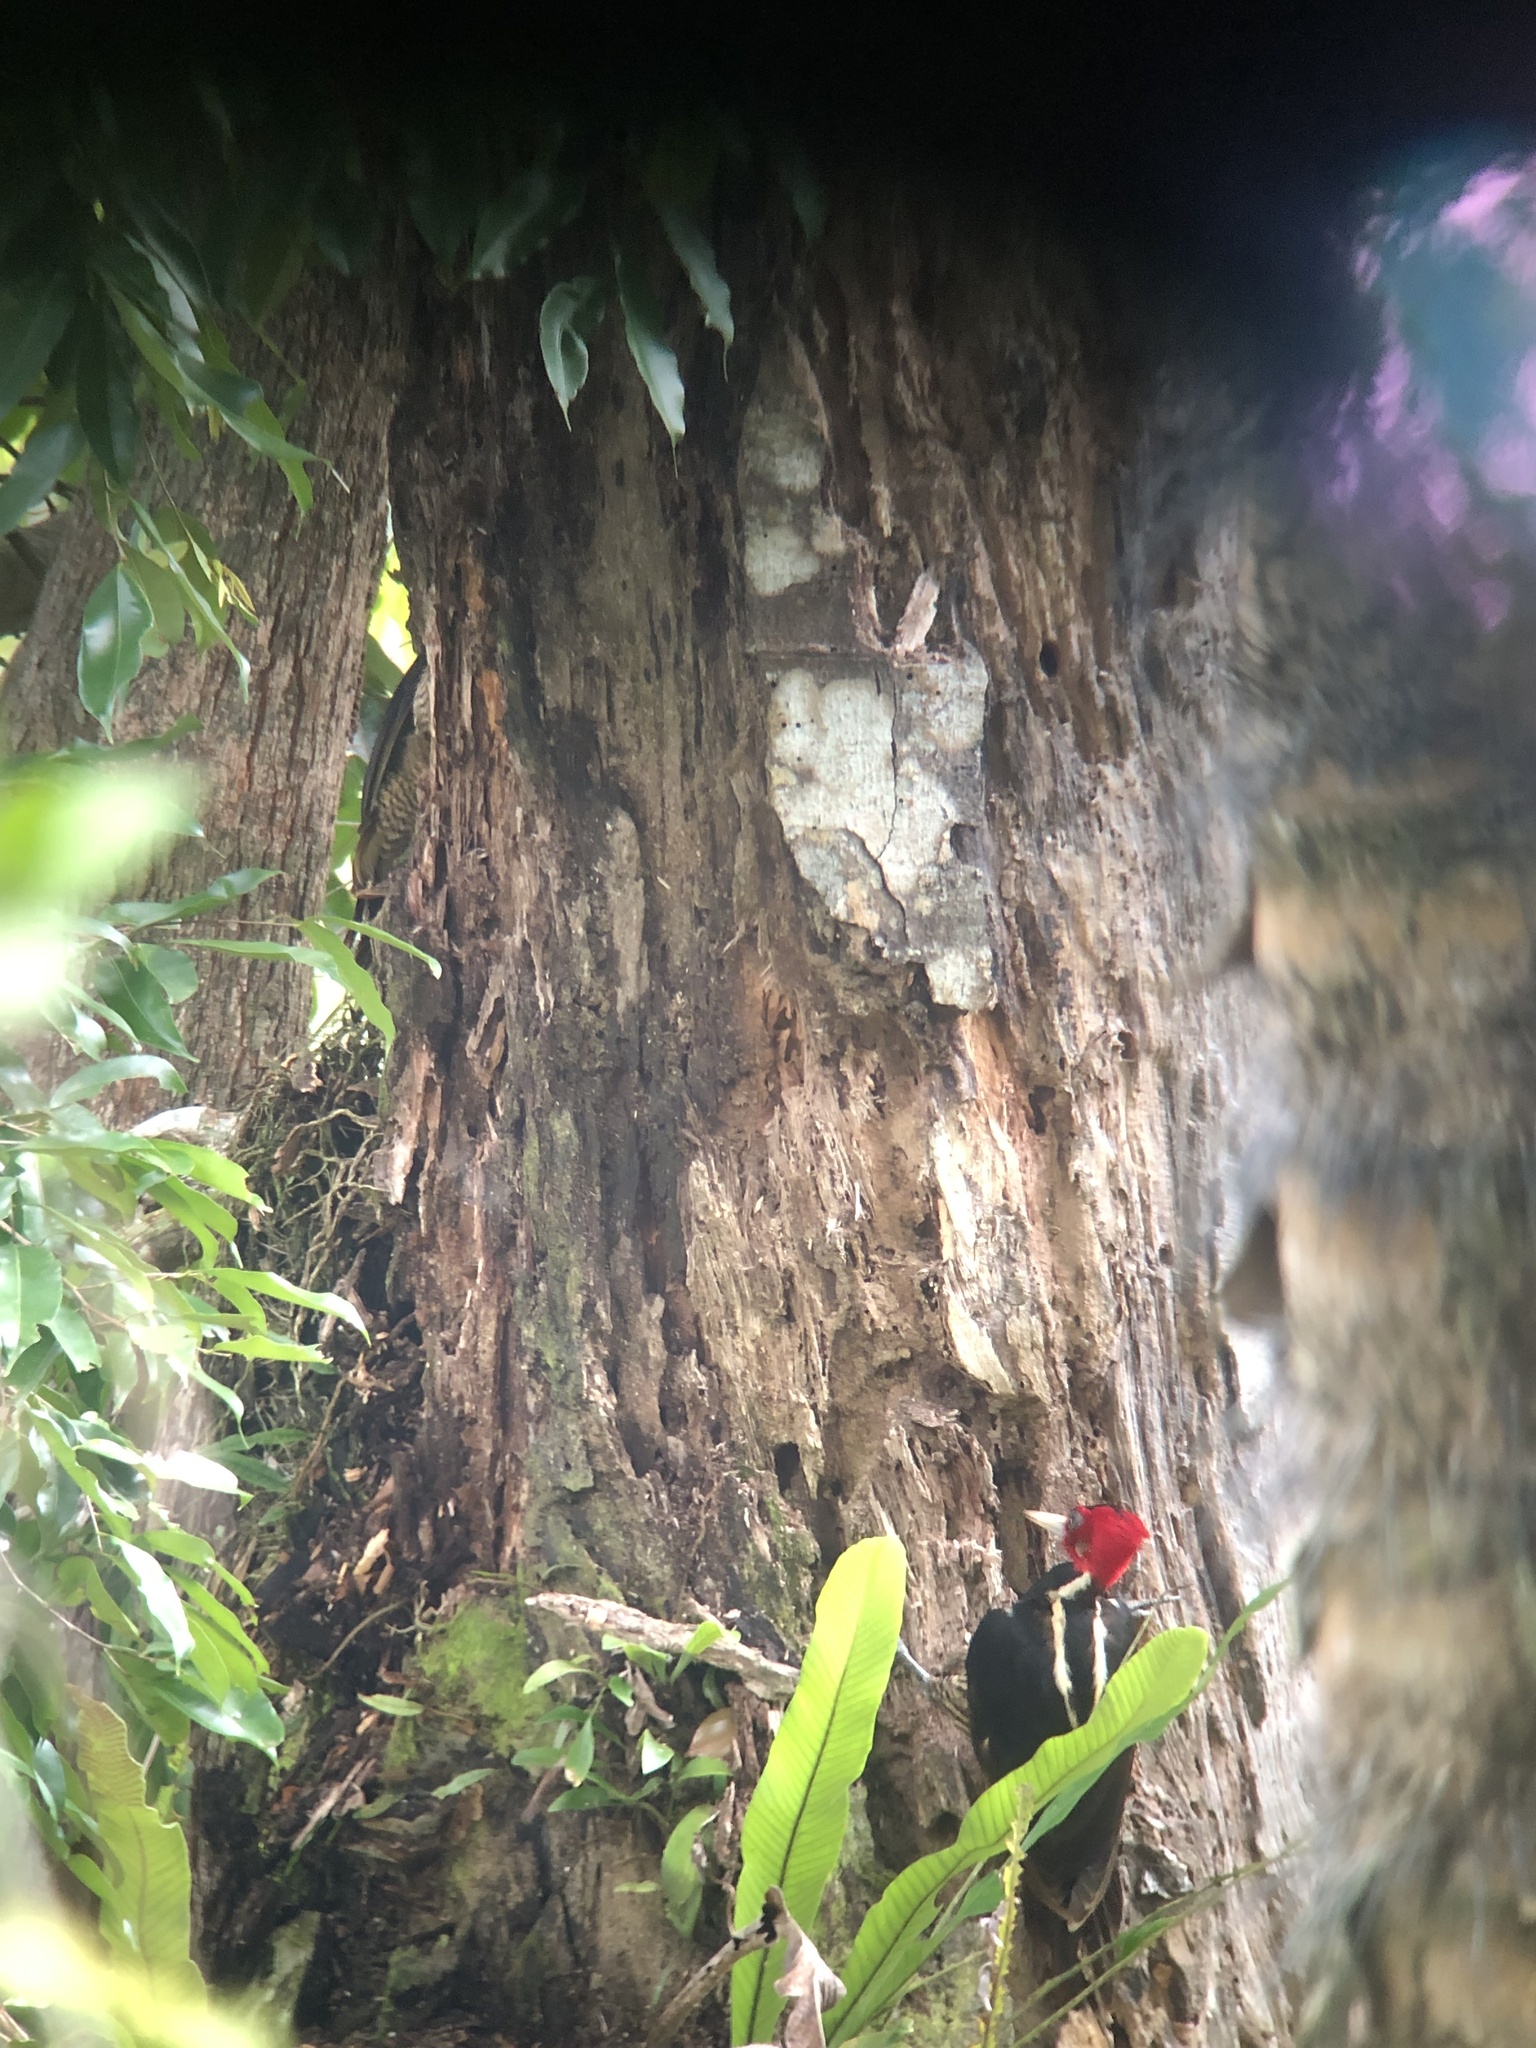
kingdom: Animalia
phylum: Chordata
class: Aves
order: Piciformes
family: Picidae
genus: Campephilus
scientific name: Campephilus guatemalensis
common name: Pale-billed woodpecker
